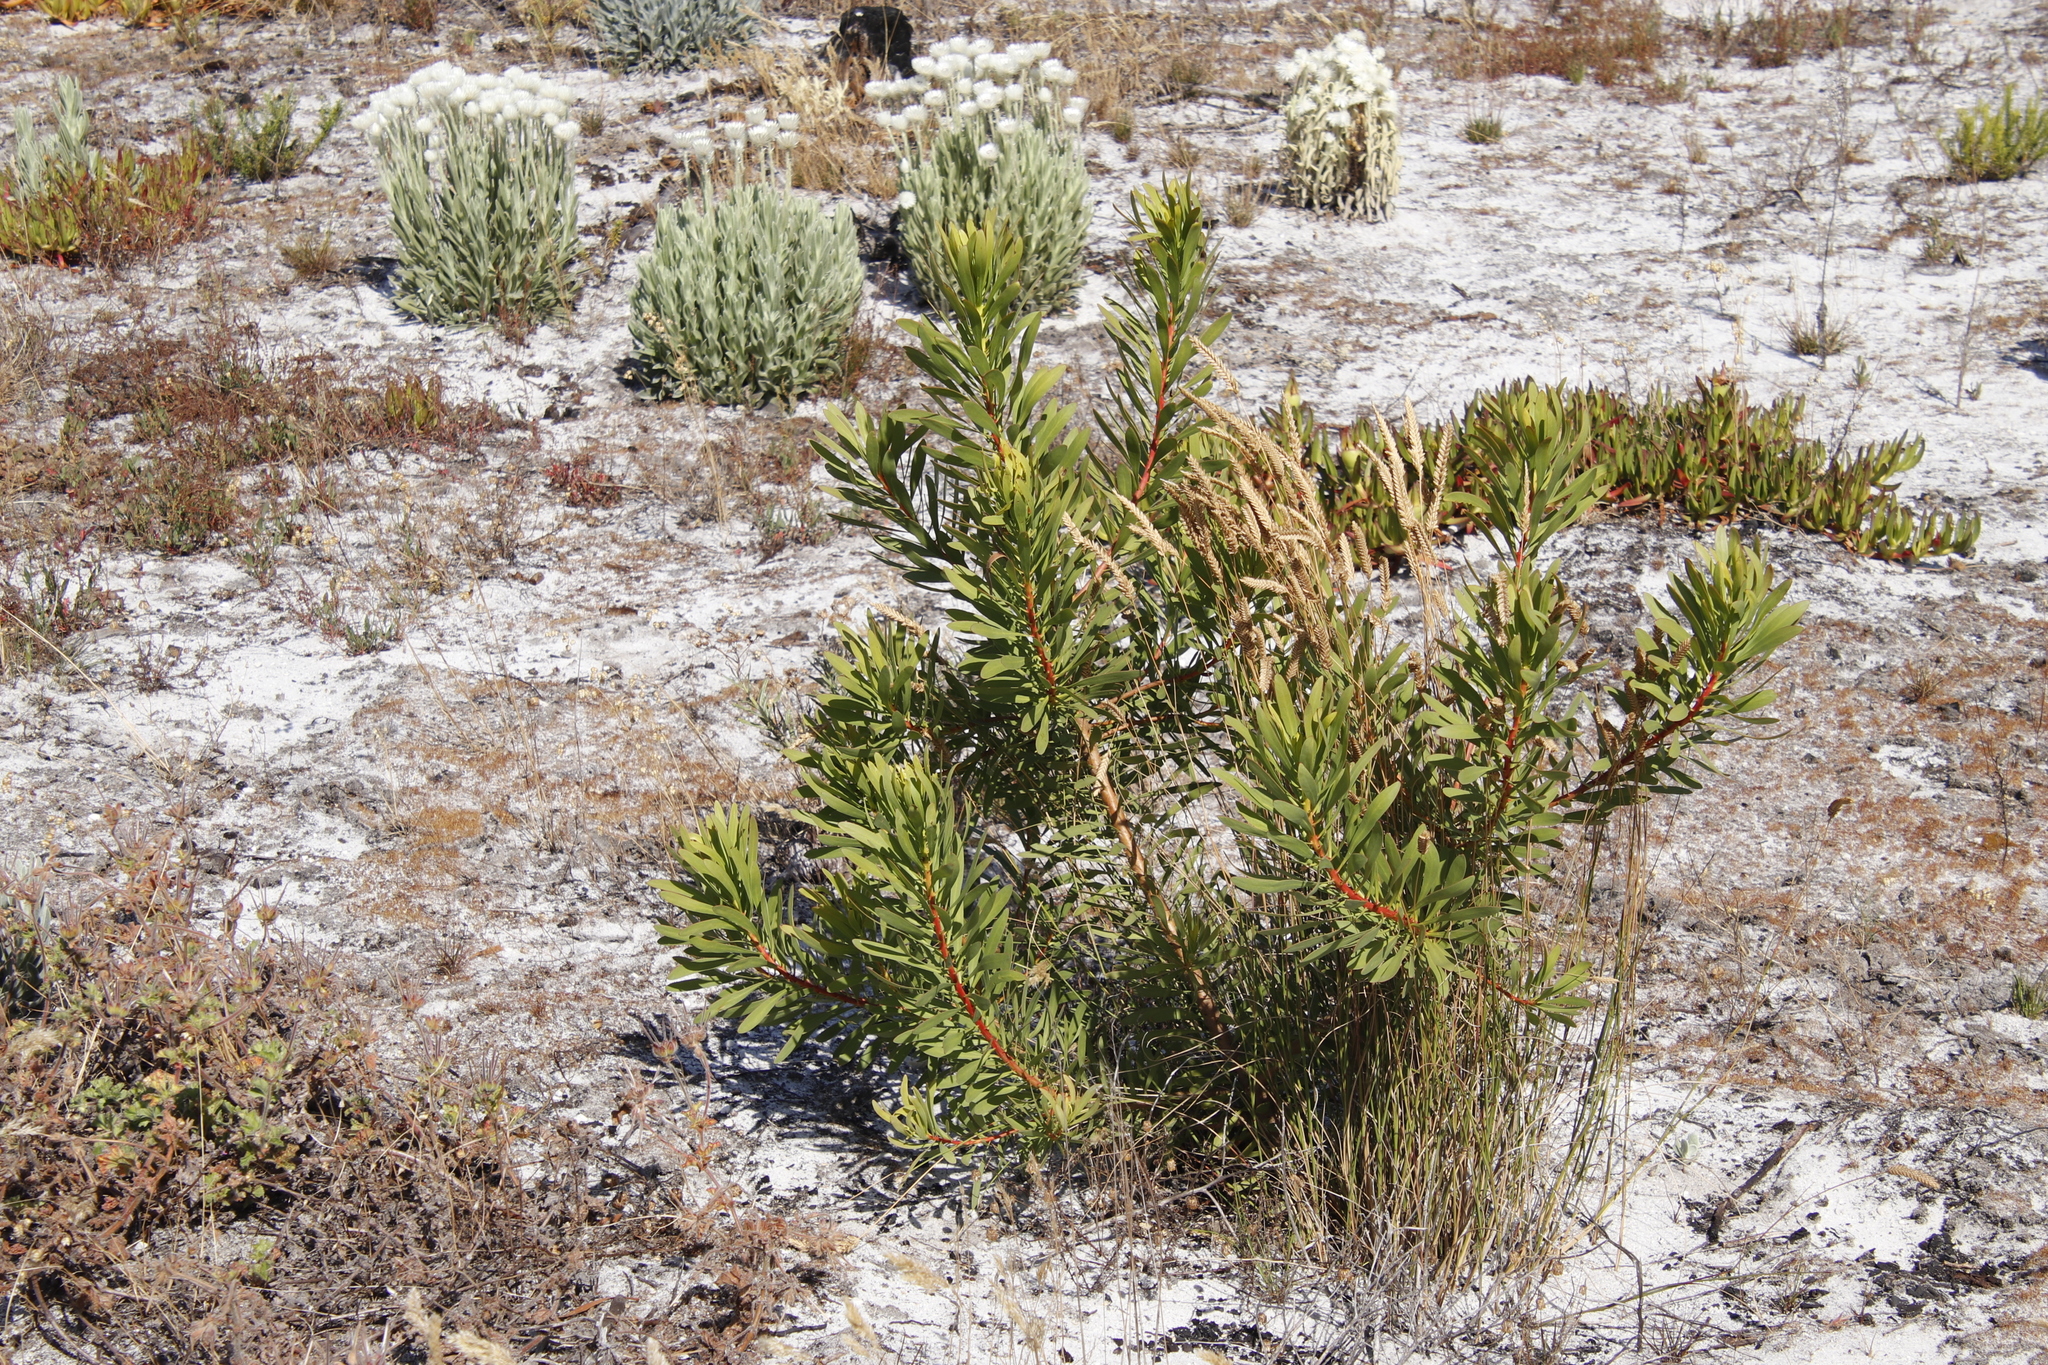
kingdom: Plantae
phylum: Tracheophyta
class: Magnoliopsida
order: Proteales
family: Proteaceae
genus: Protea
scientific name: Protea repens
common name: Sugarbush
